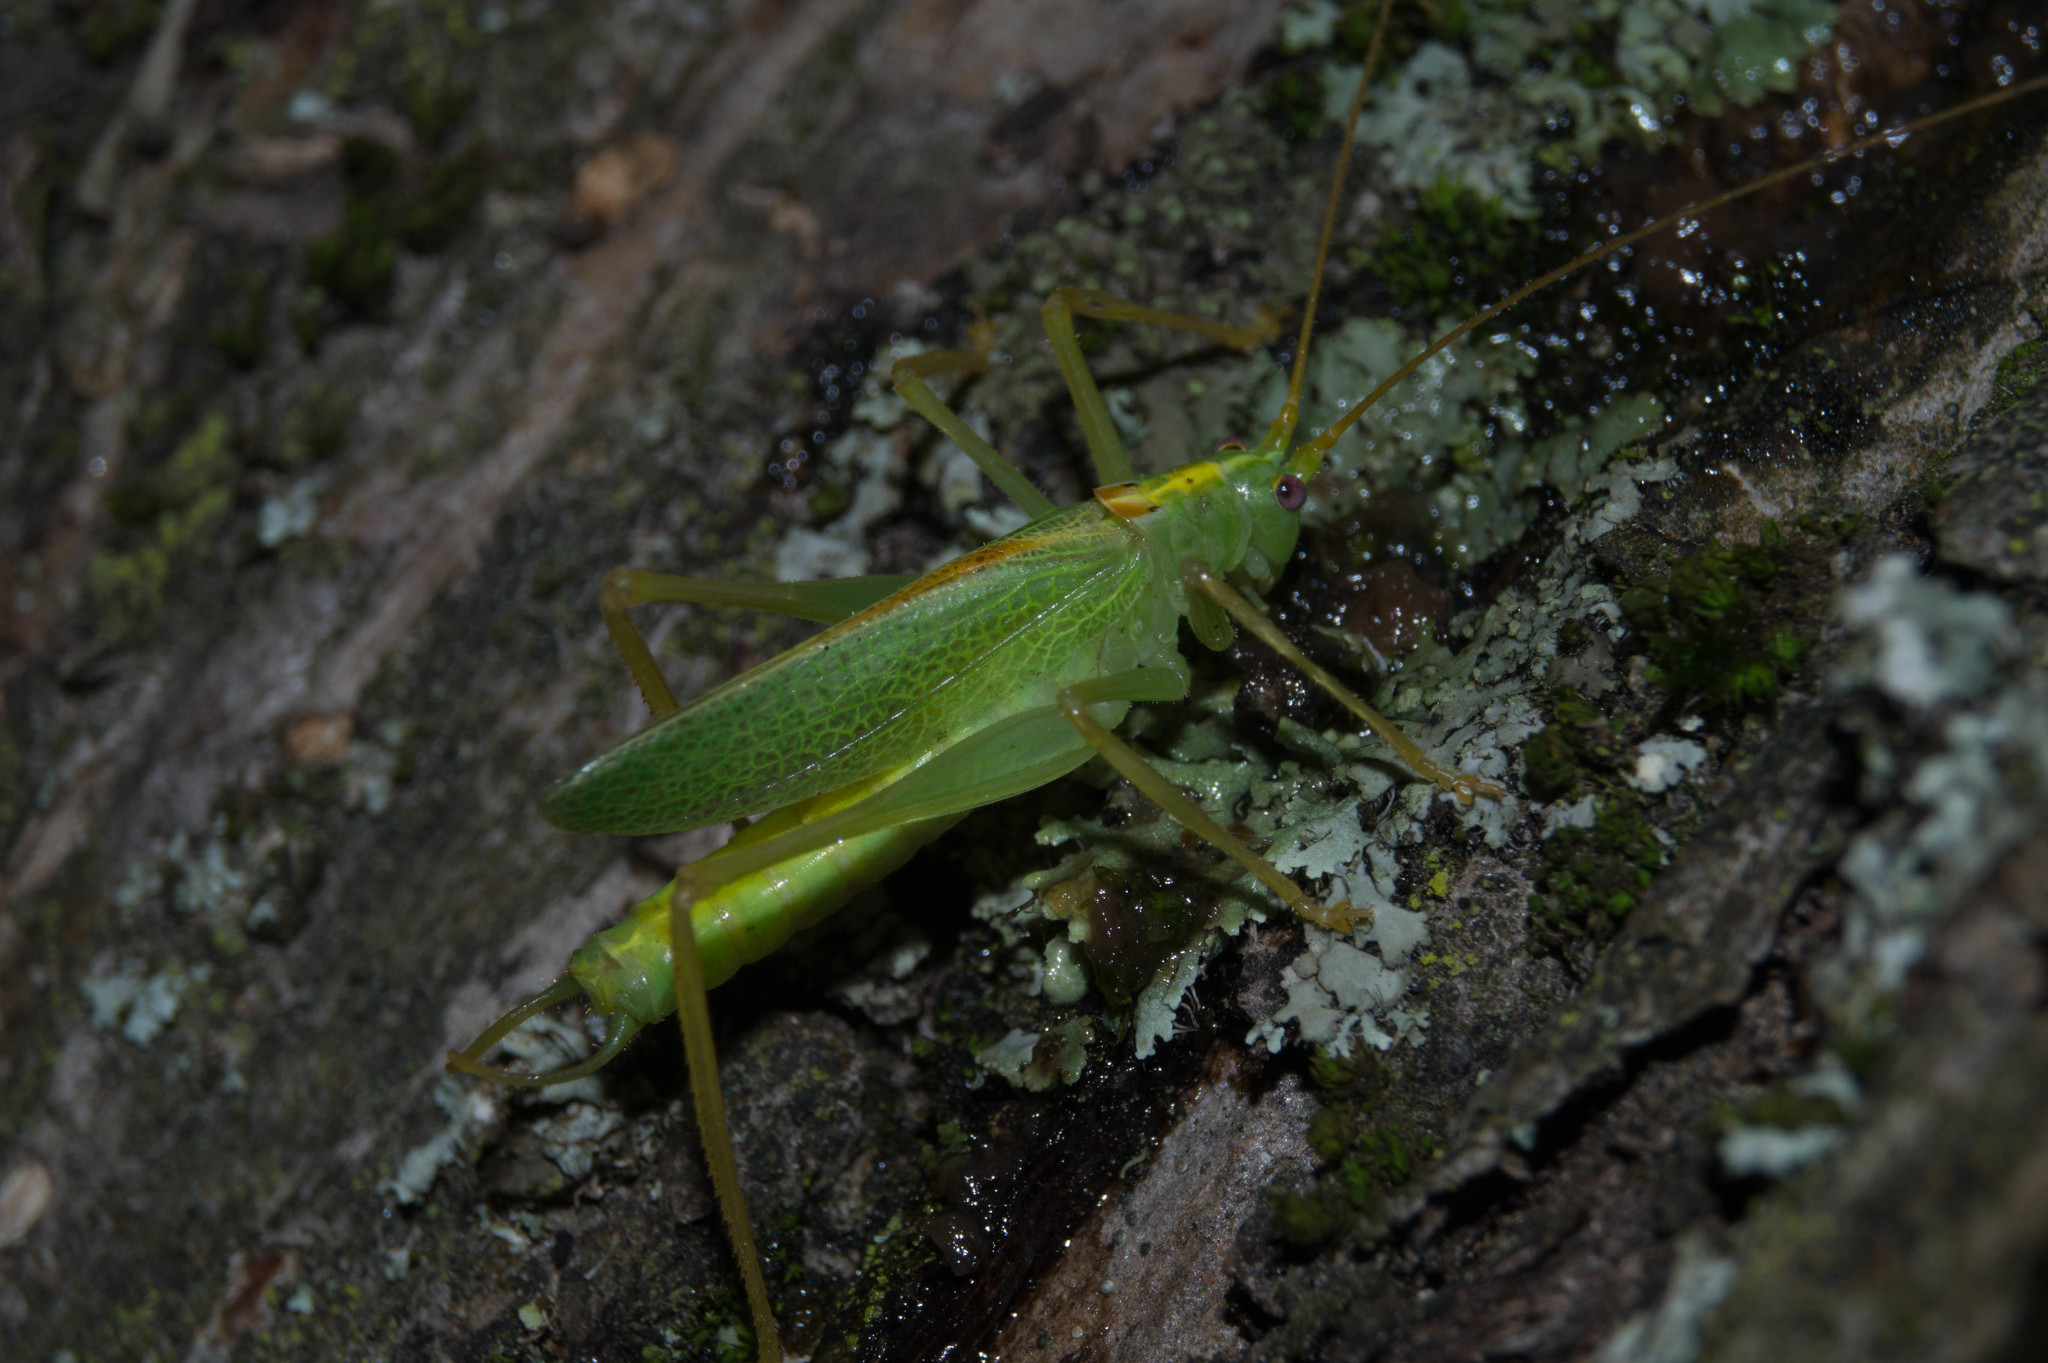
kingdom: Animalia
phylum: Arthropoda
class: Insecta
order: Orthoptera
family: Tettigoniidae
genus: Meconema
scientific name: Meconema thalassinum
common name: Oak bush-cricket
